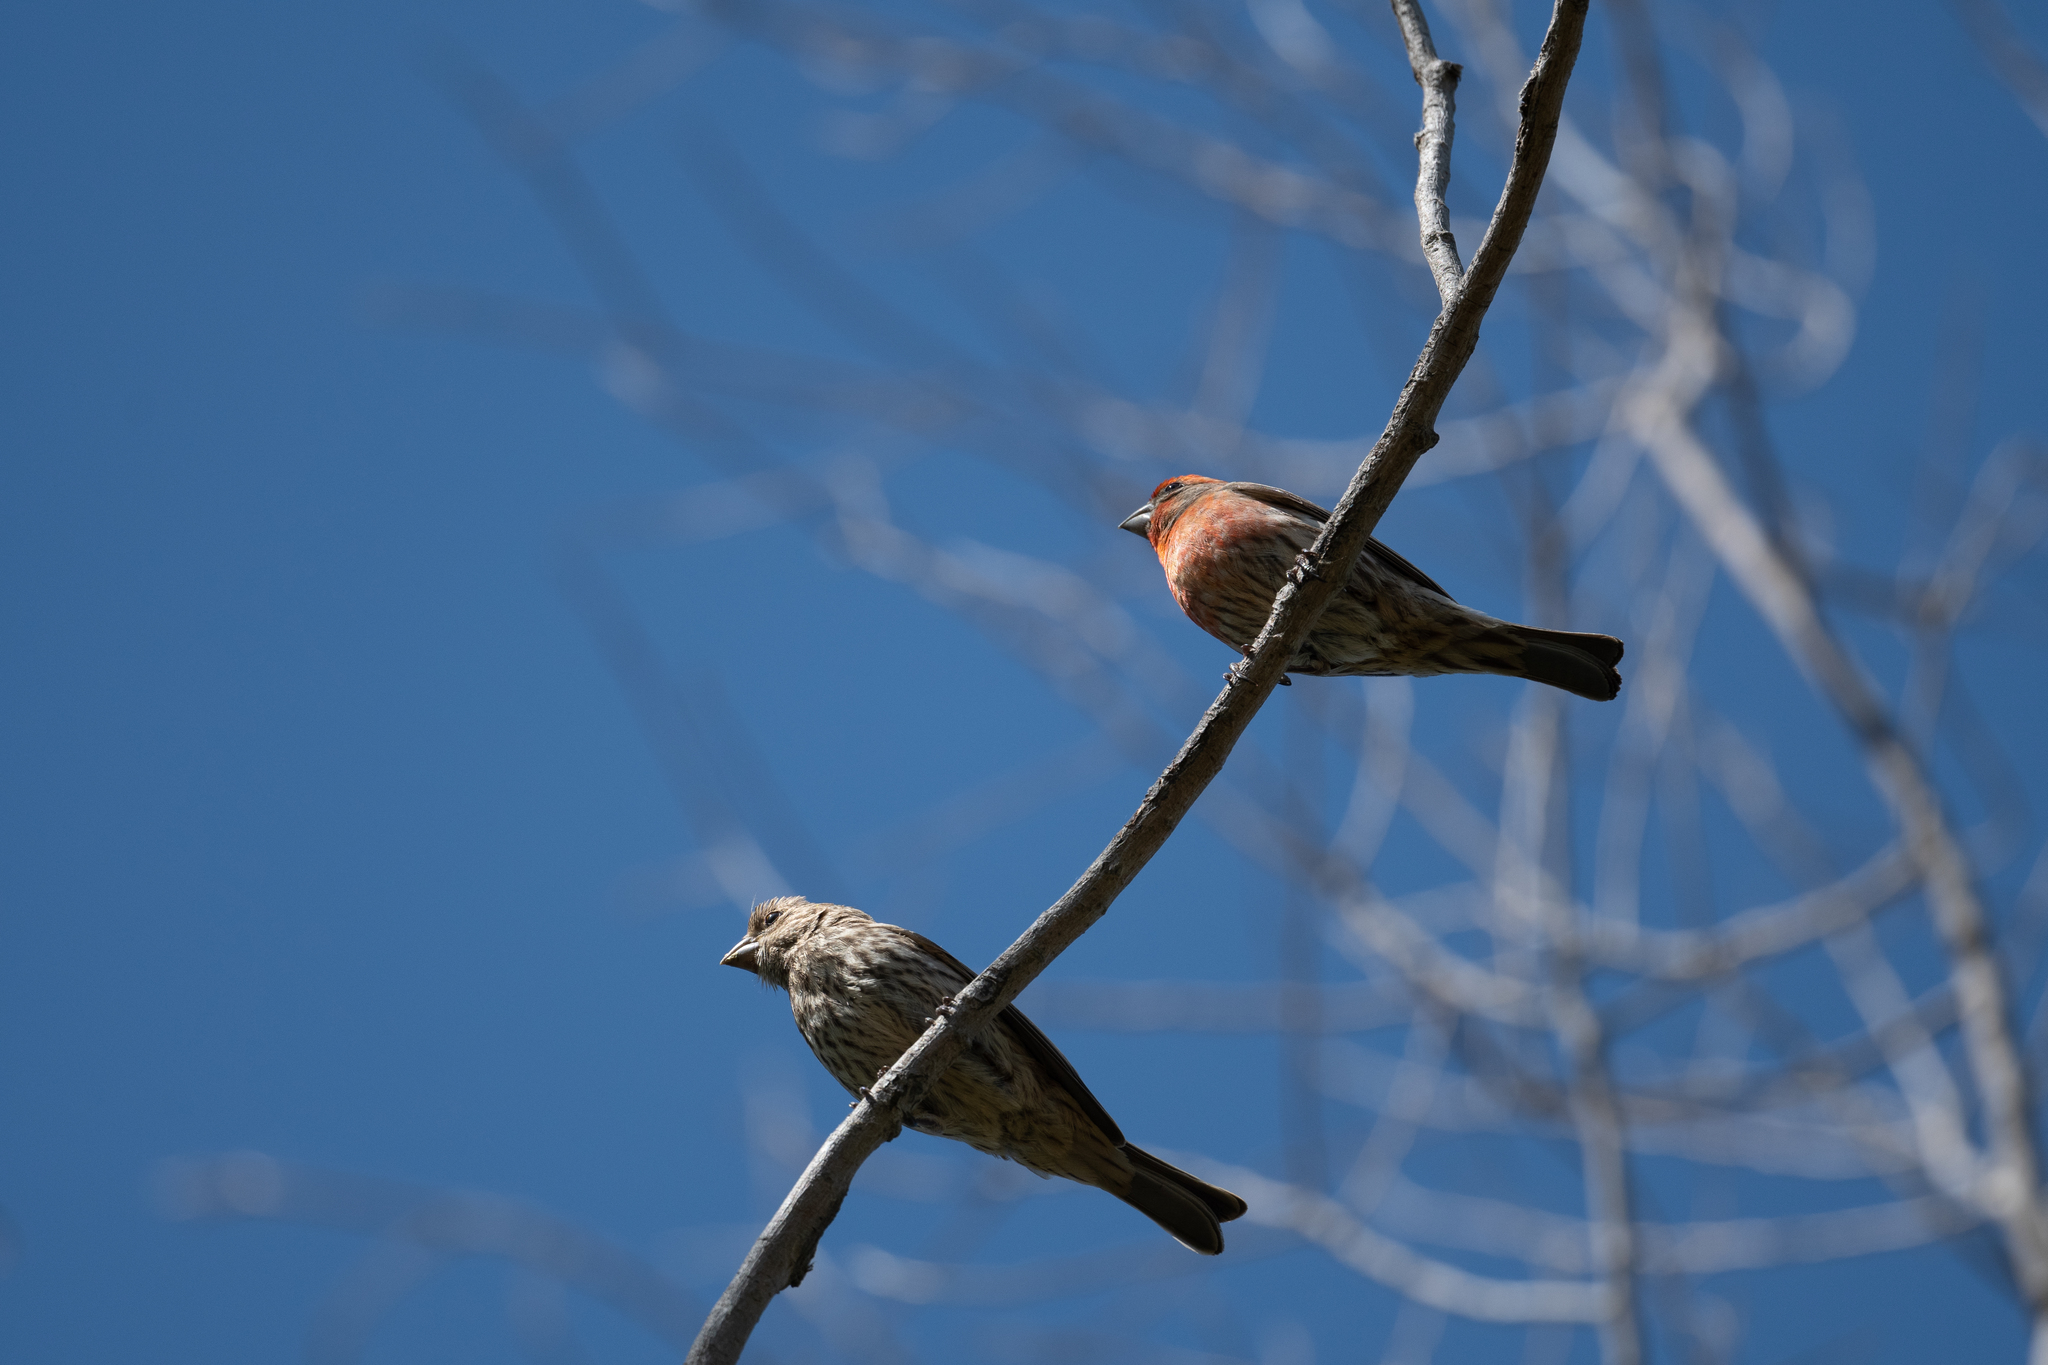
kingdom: Animalia
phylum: Chordata
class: Aves
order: Passeriformes
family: Fringillidae
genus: Haemorhous
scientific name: Haemorhous mexicanus
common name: House finch
